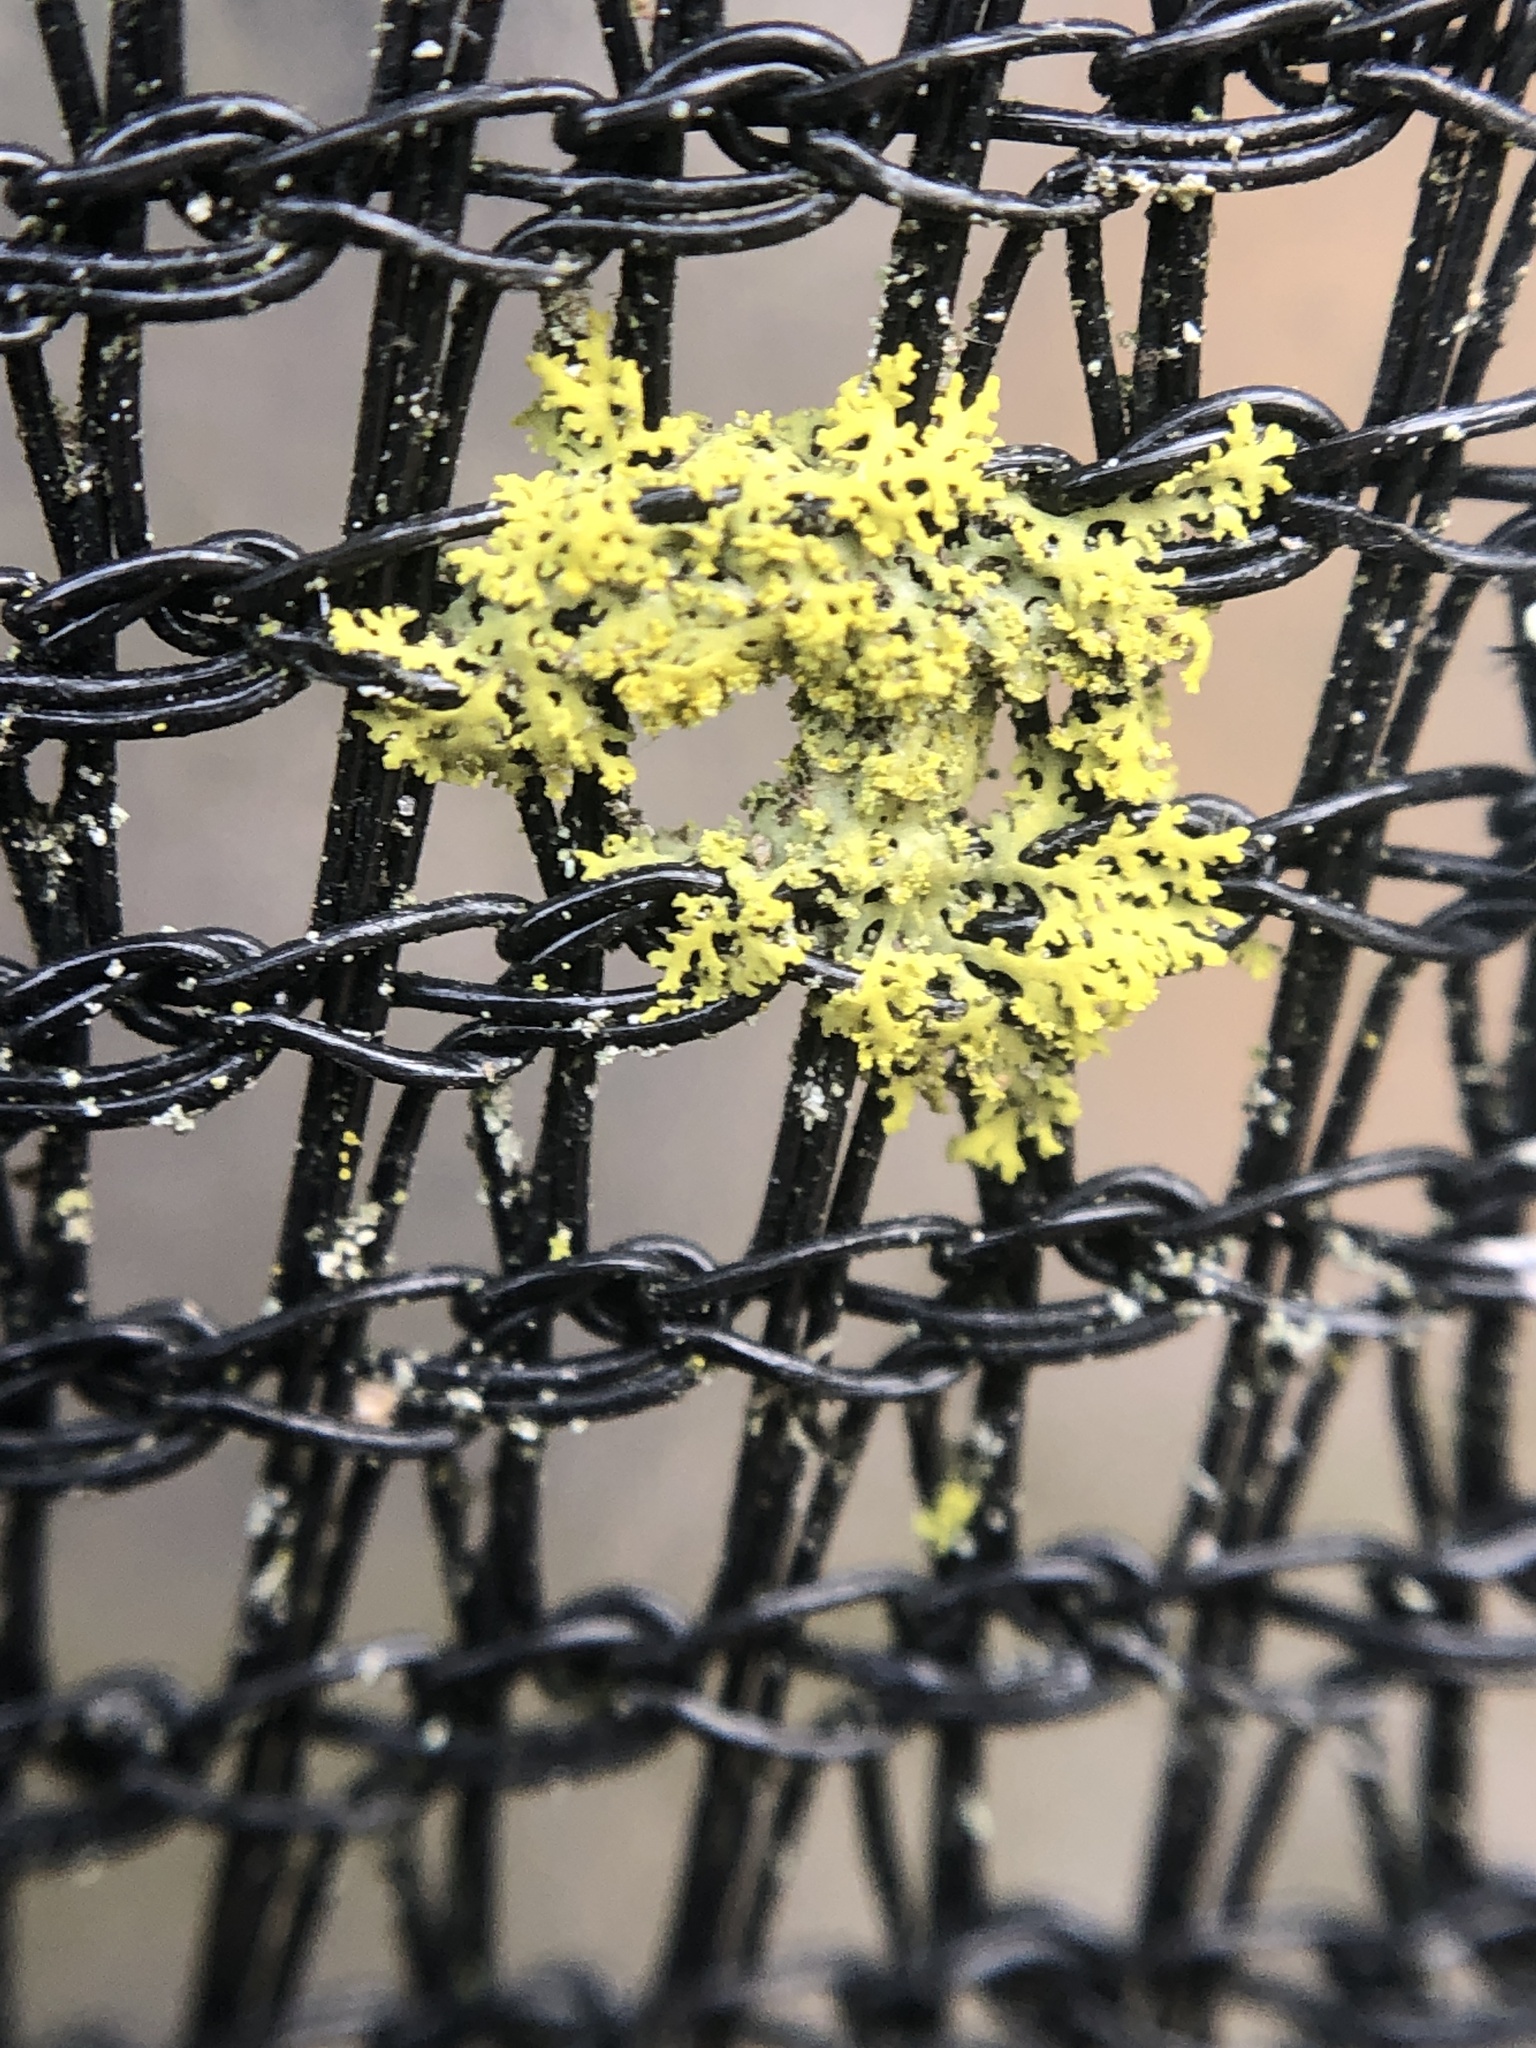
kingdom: Fungi
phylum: Ascomycota
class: Candelariomycetes
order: Candelariales
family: Candelariaceae
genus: Candelaria
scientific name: Candelaria concolor
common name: Candleflame lichen
